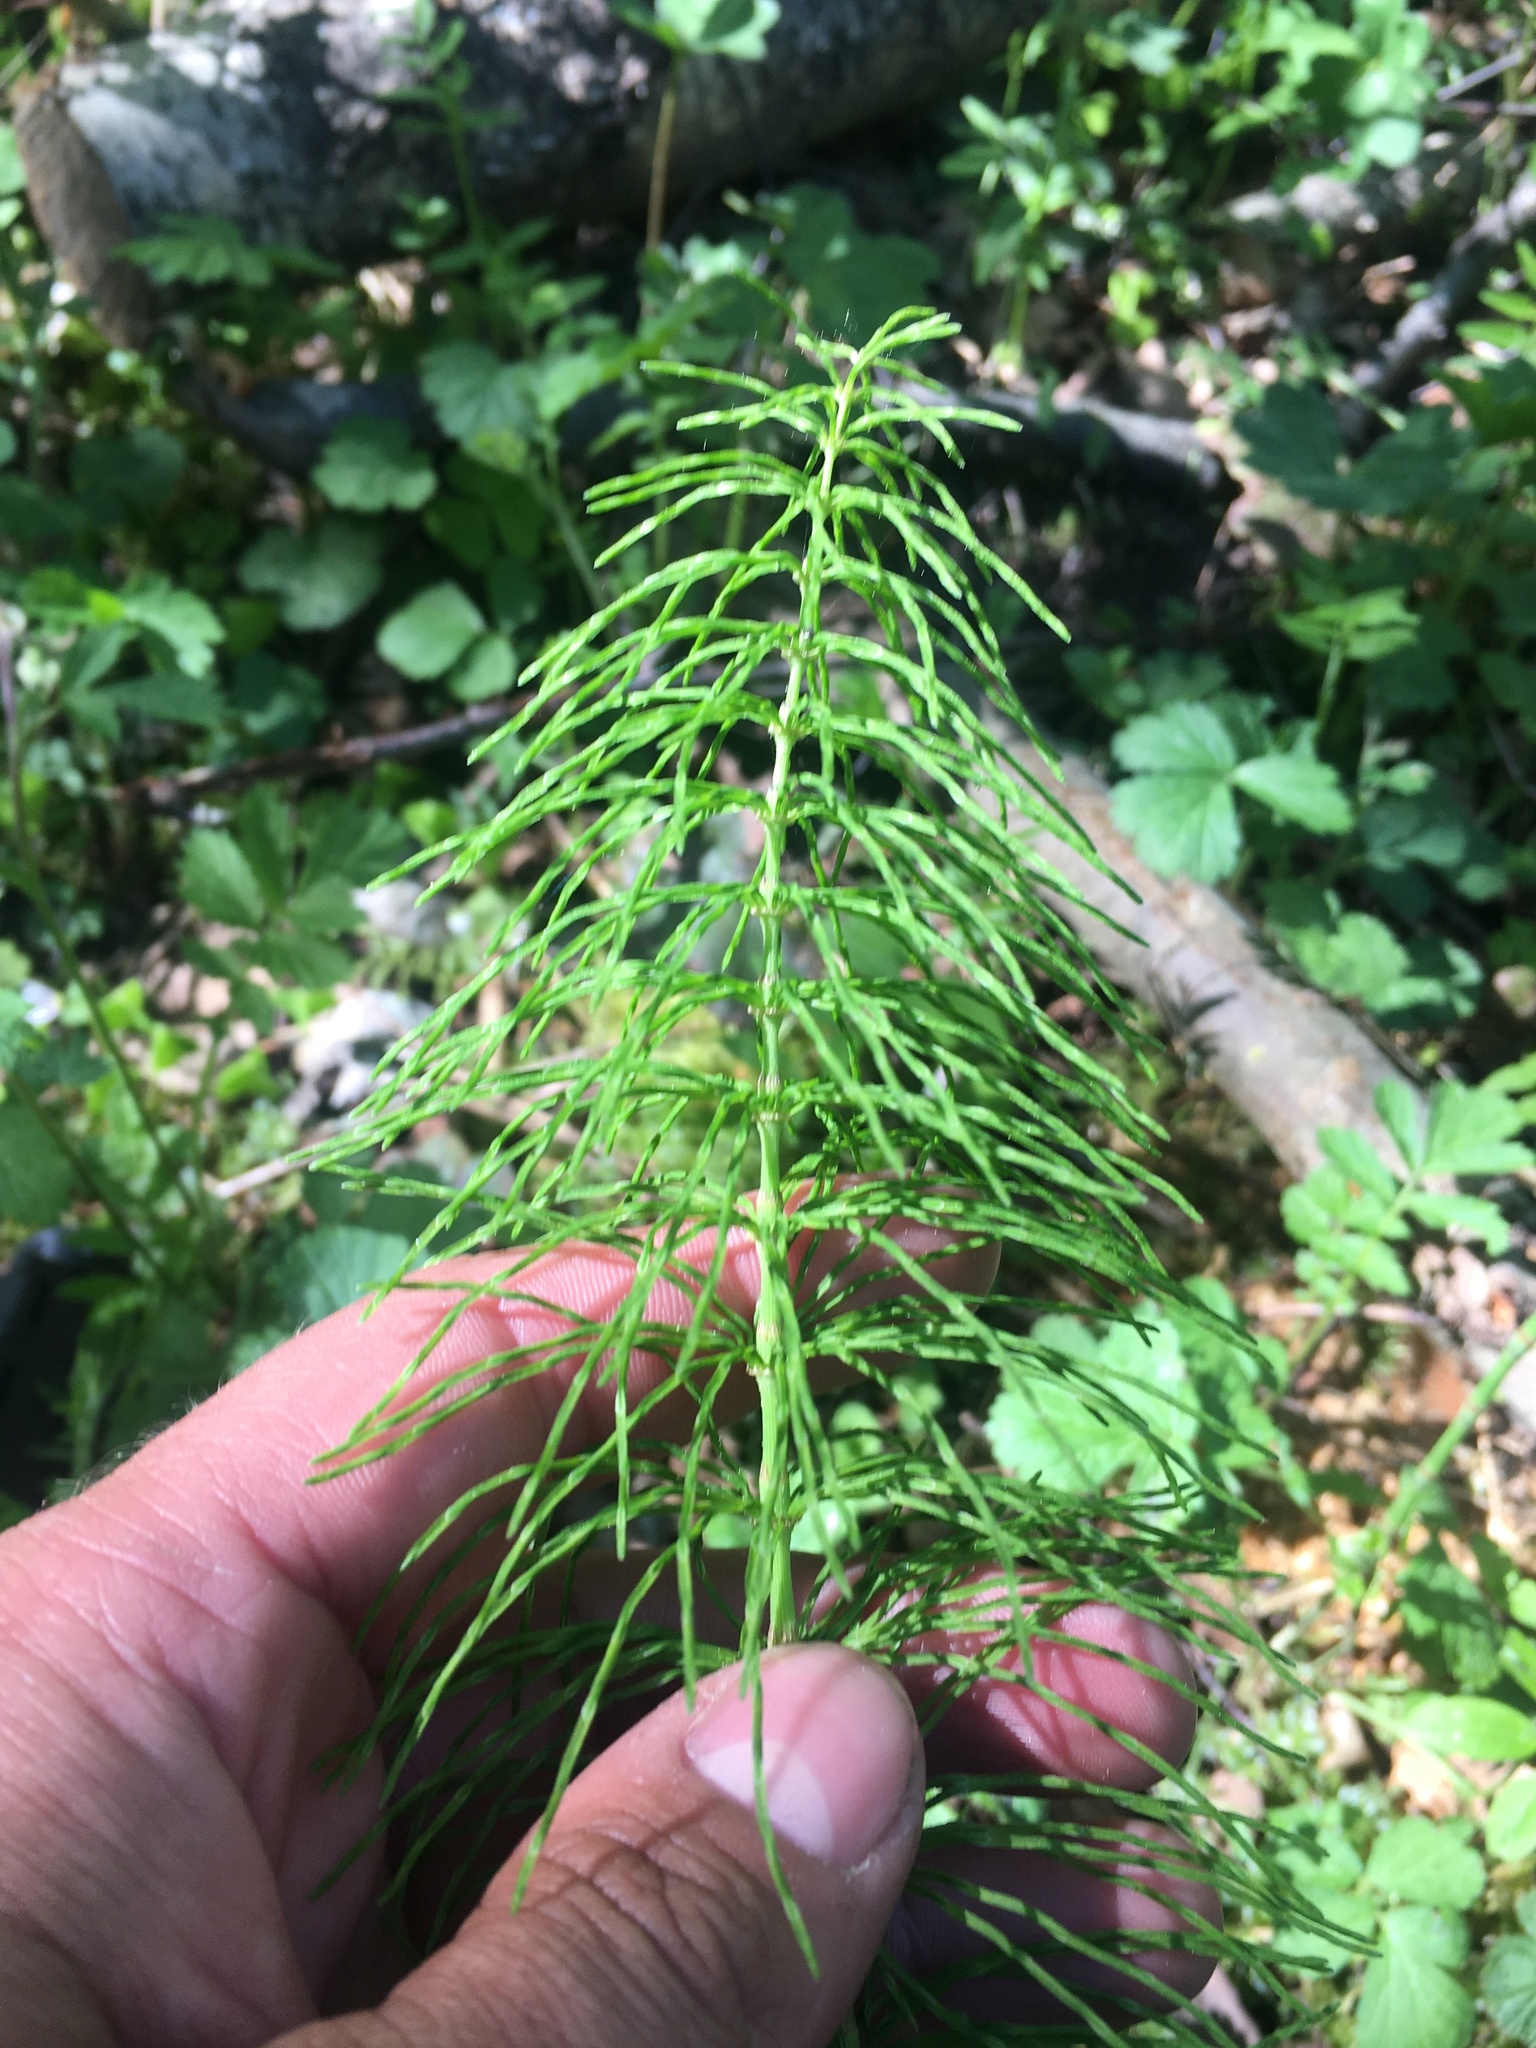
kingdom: Plantae
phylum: Tracheophyta
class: Polypodiopsida
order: Equisetales
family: Equisetaceae
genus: Equisetum
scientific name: Equisetum pratense
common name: Meadow horsetail
